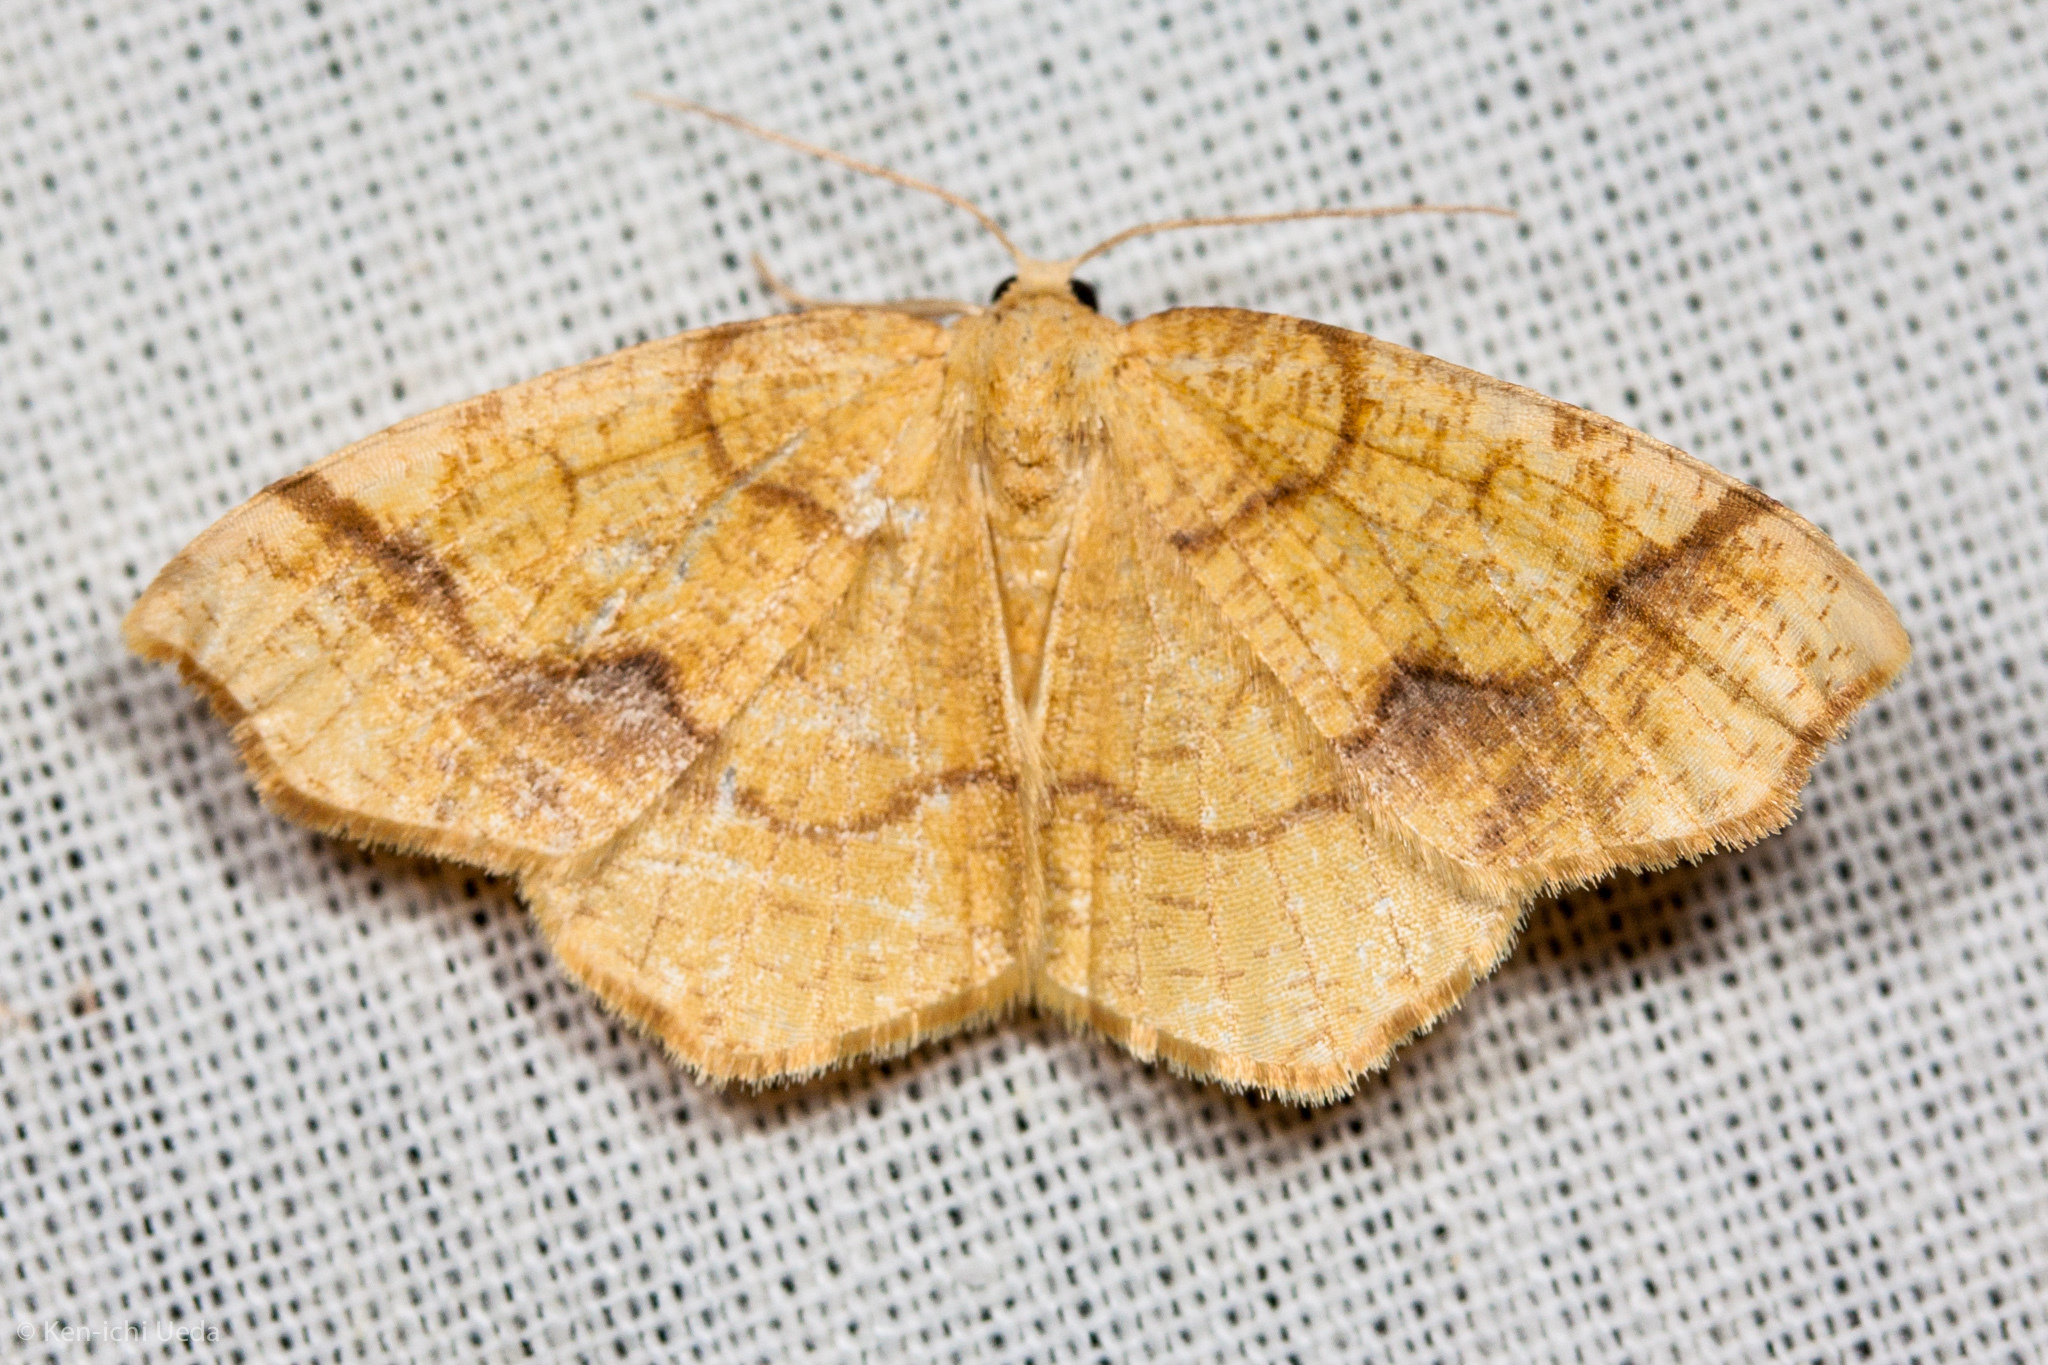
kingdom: Animalia
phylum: Arthropoda
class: Insecta
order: Lepidoptera
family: Geometridae
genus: Nematocampa
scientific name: Nematocampa brehmeata
